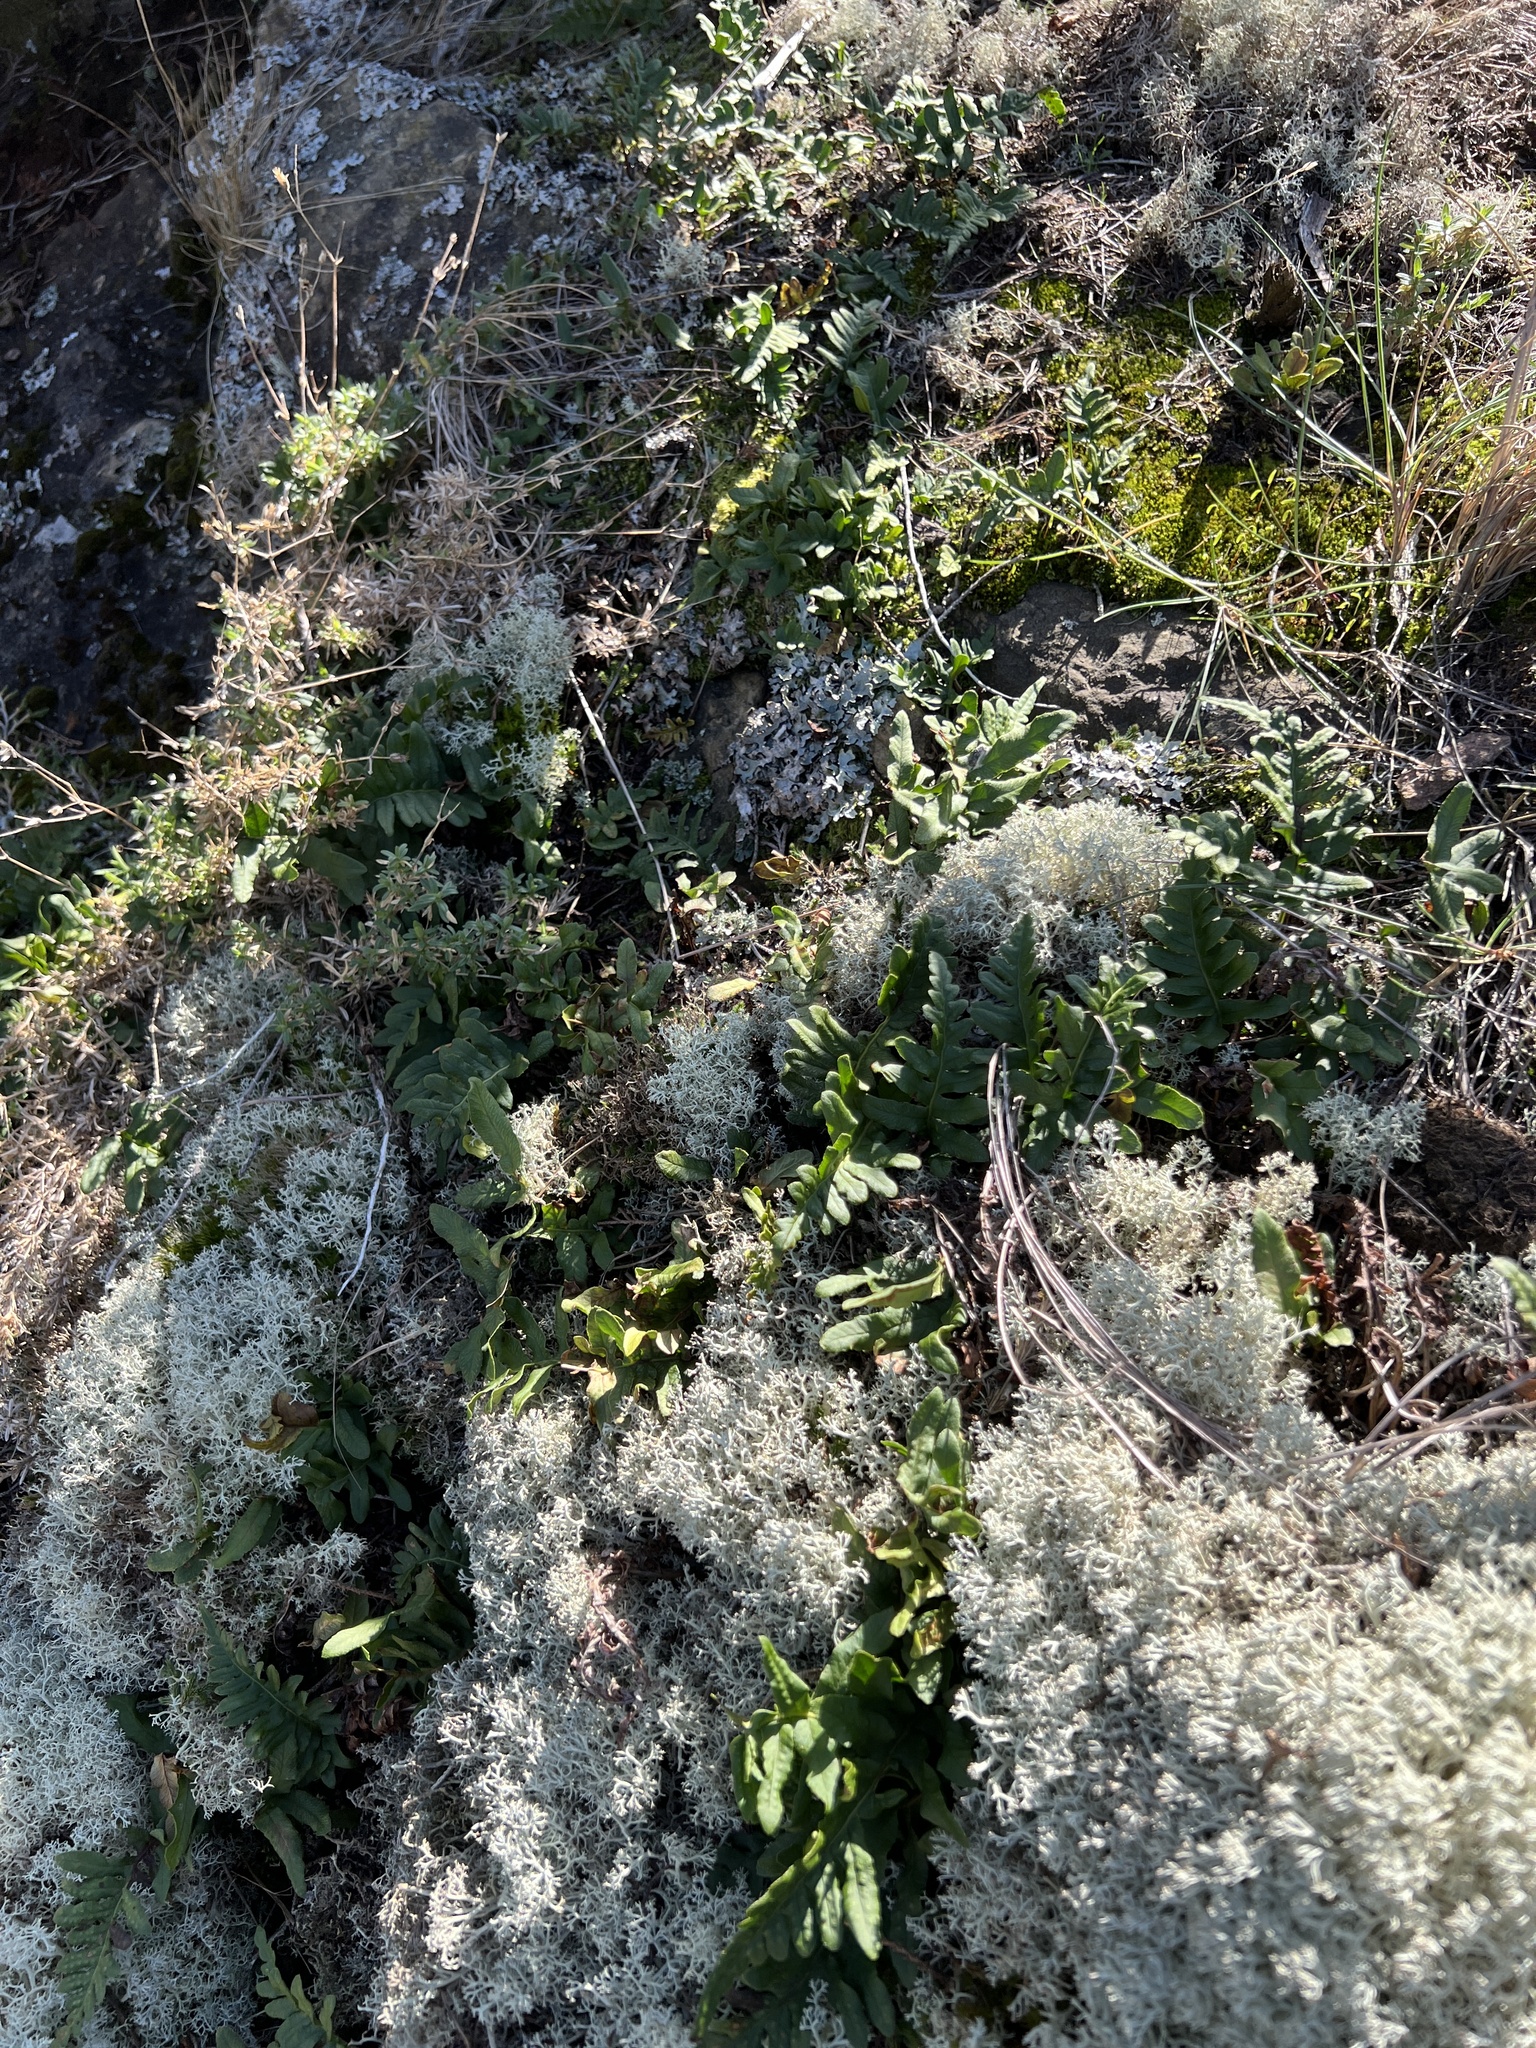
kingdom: Plantae
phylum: Tracheophyta
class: Polypodiopsida
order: Polypodiales
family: Polypodiaceae
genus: Polypodium
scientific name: Polypodium glycyrrhiza
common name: Licorice fern
